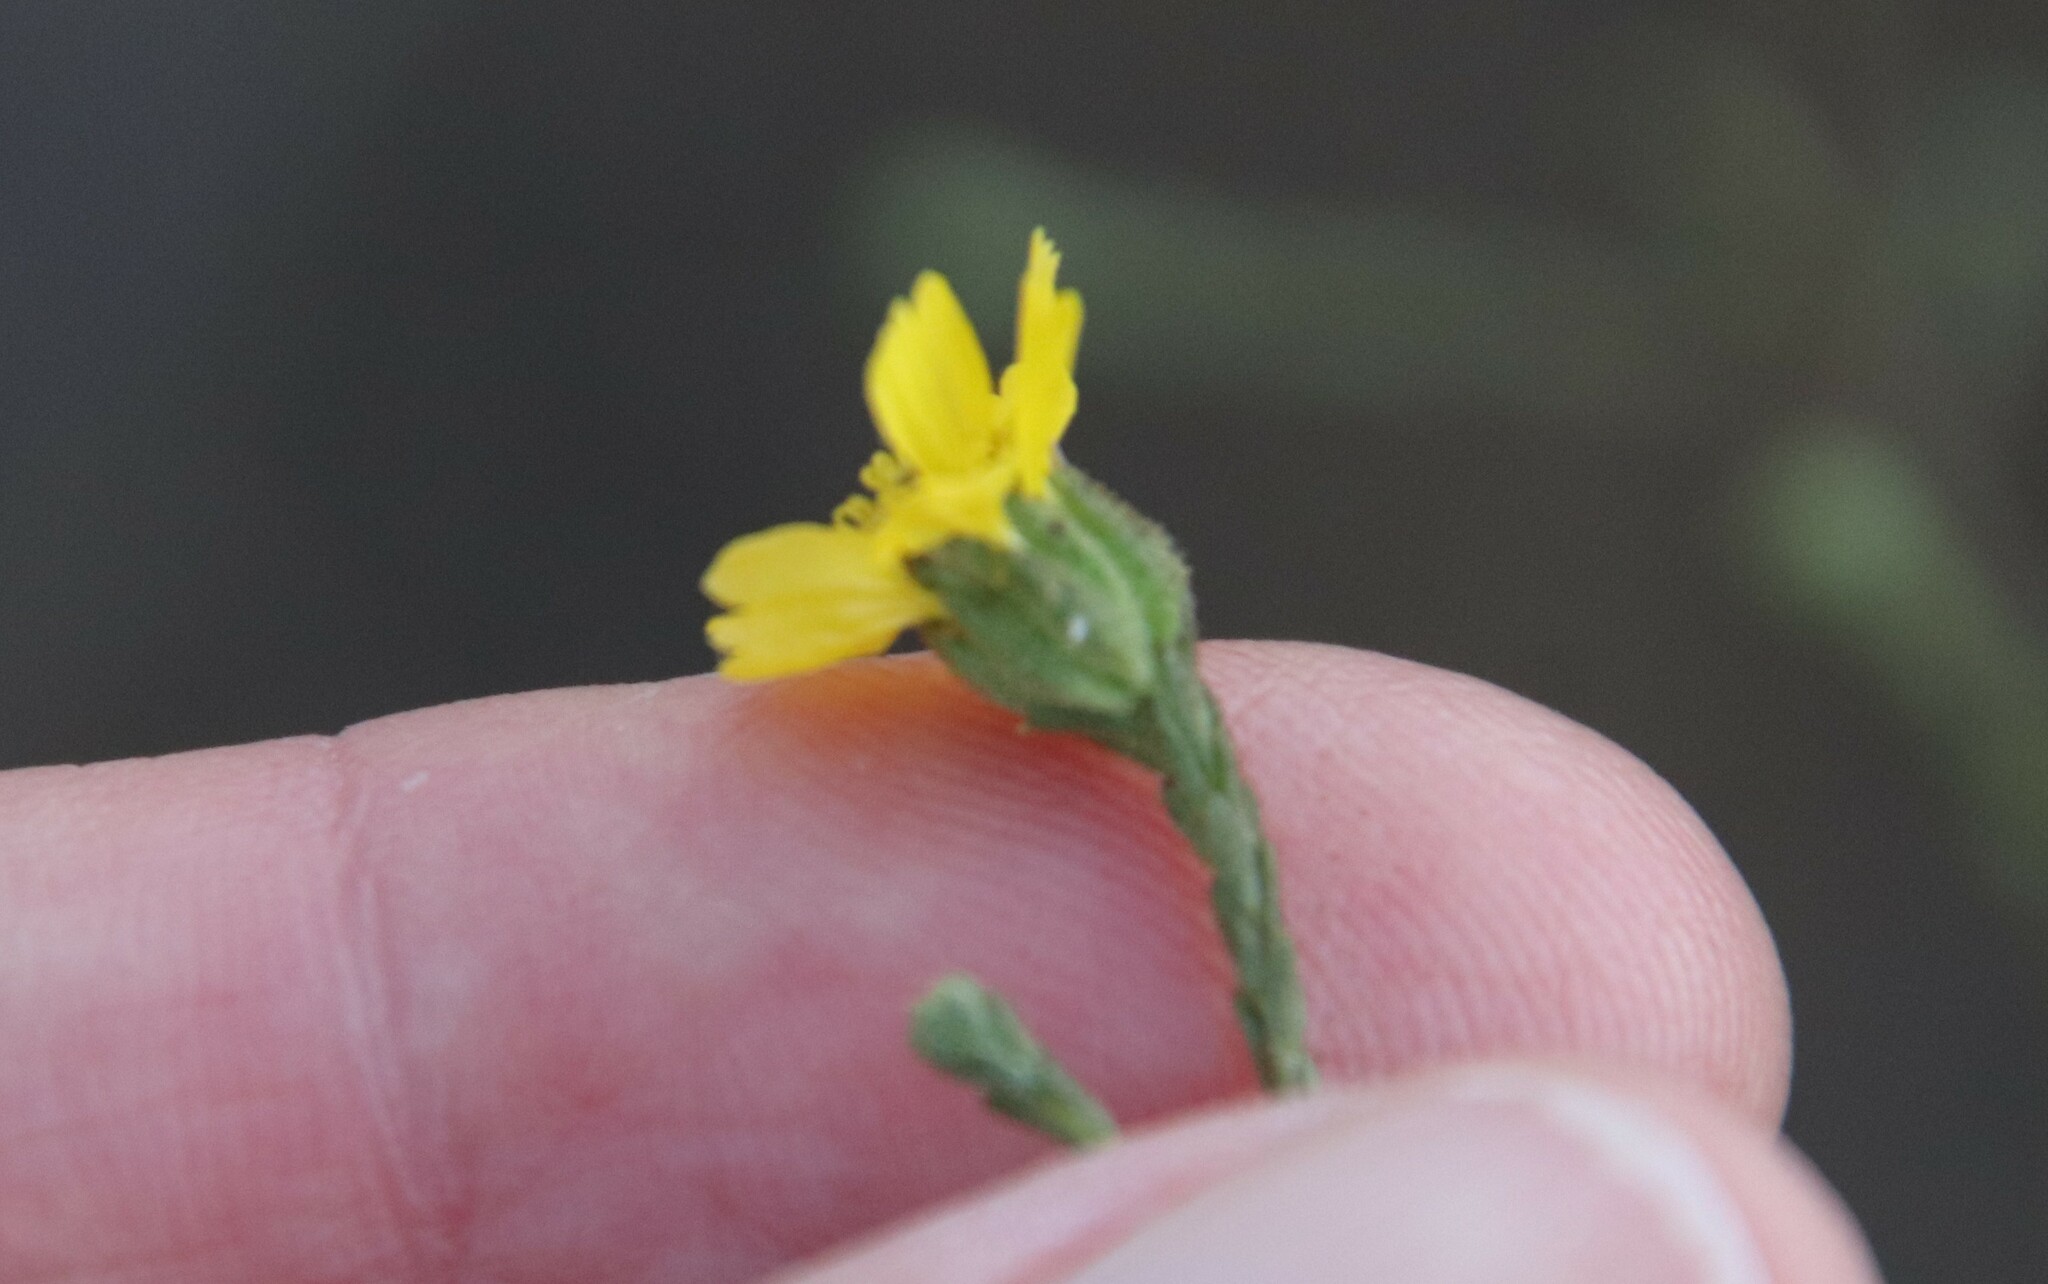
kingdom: Plantae
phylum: Tracheophyta
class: Magnoliopsida
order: Asterales
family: Asteraceae
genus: Deinandra
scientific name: Deinandra paniculata
